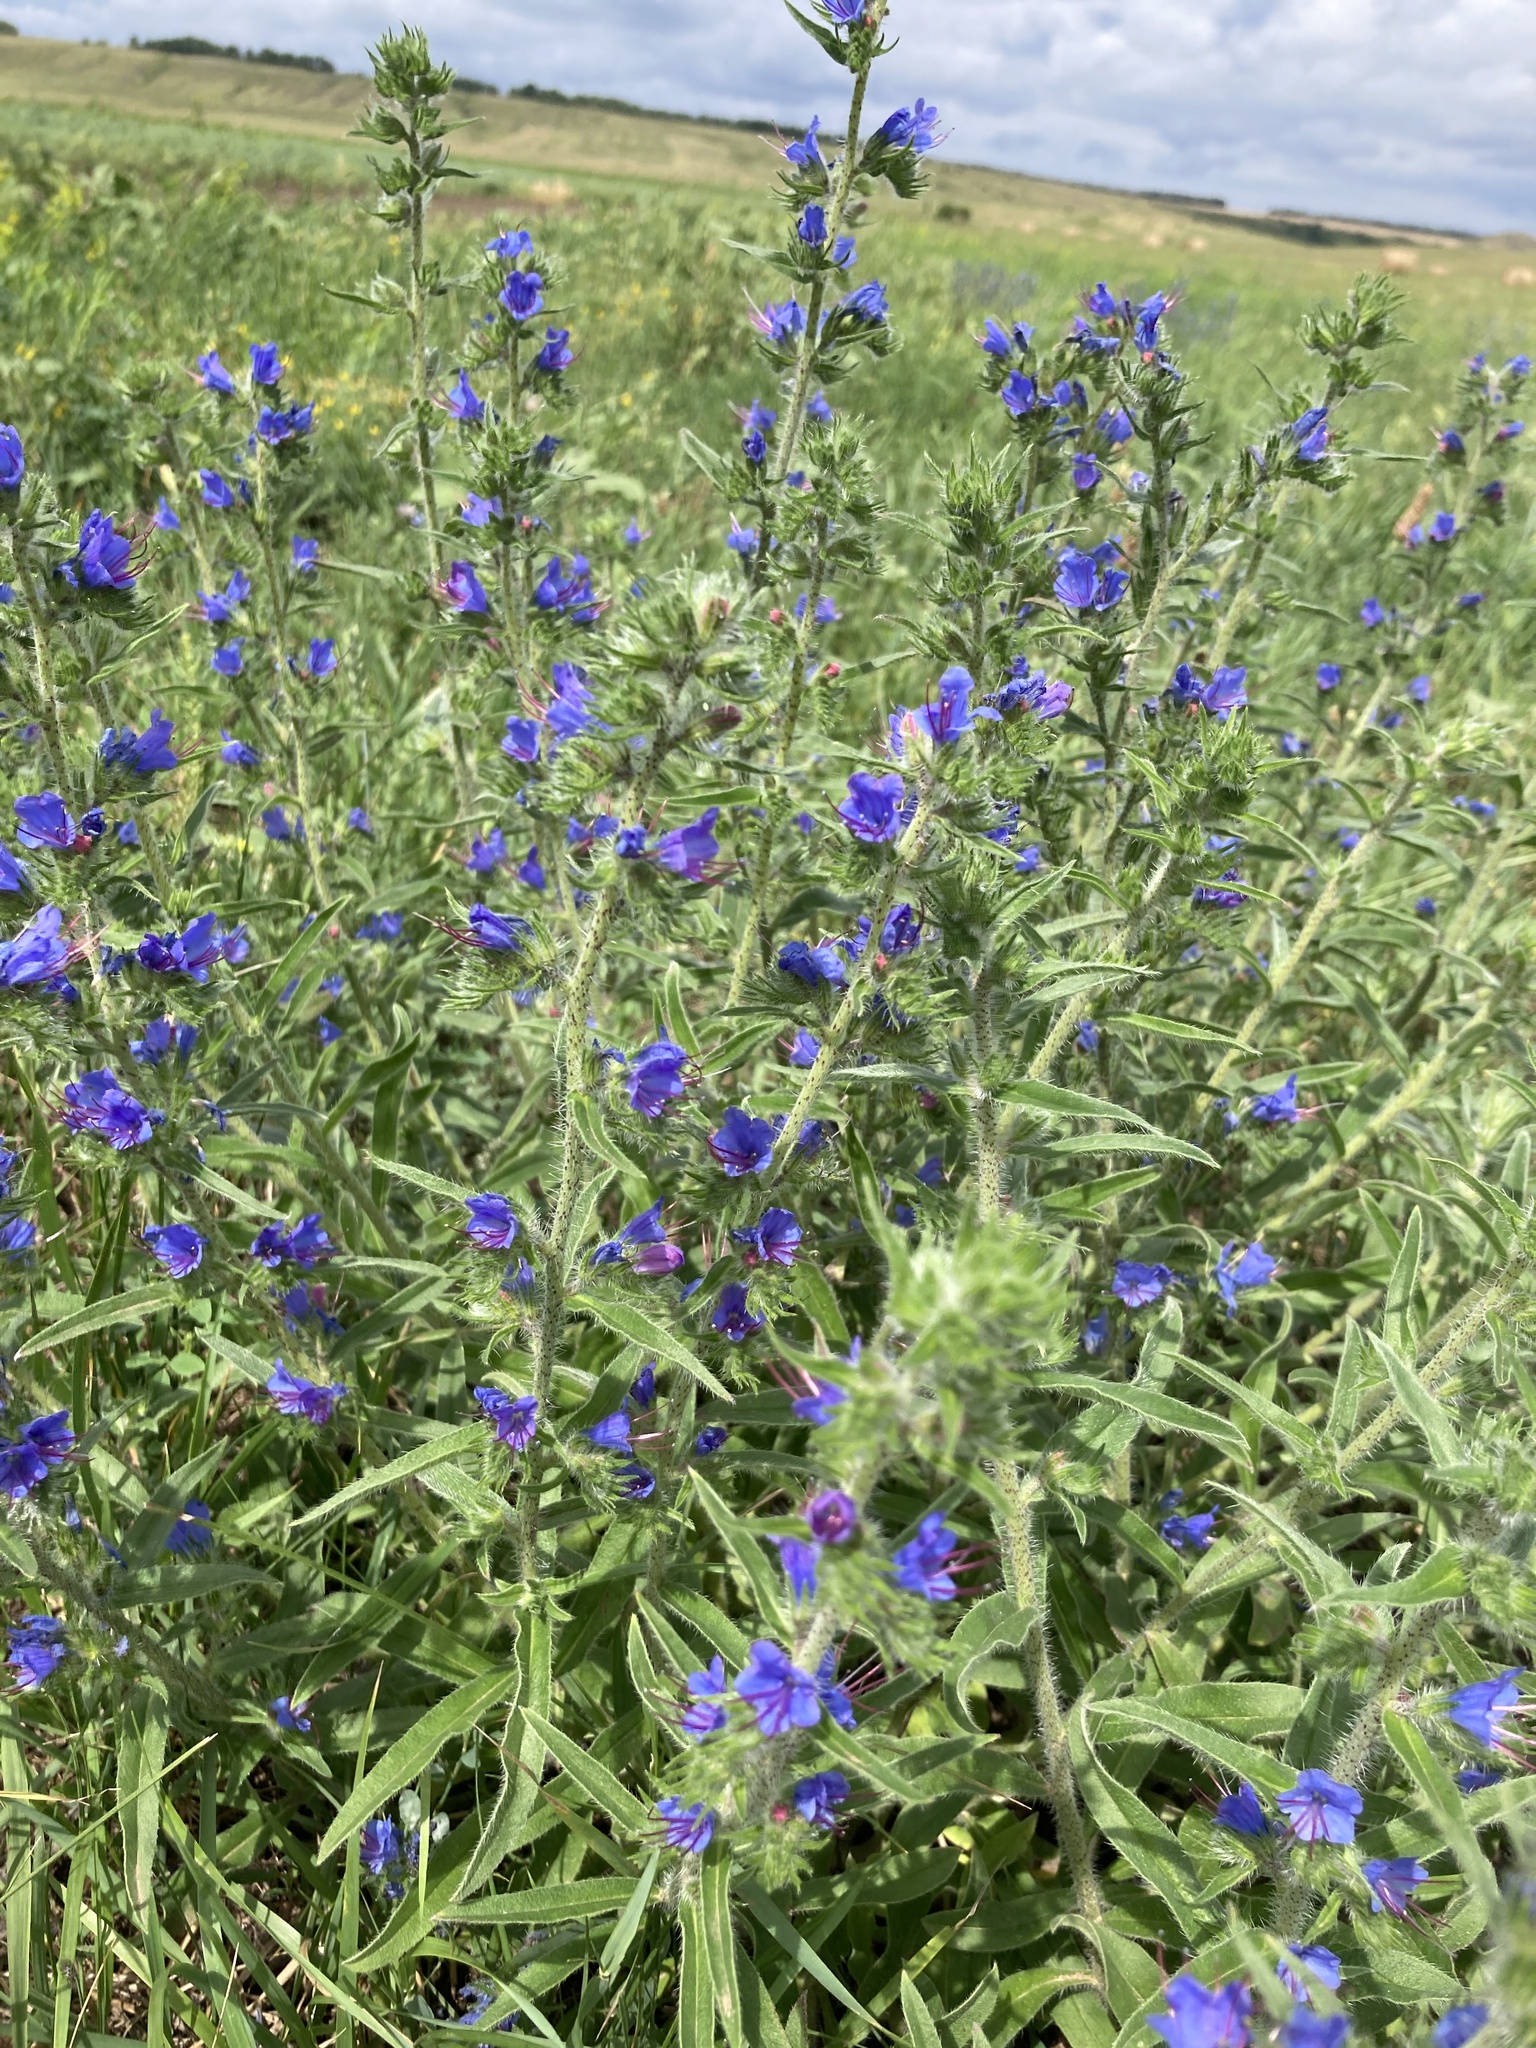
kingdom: Plantae
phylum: Tracheophyta
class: Magnoliopsida
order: Boraginales
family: Boraginaceae
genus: Echium
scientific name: Echium vulgare
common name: Common viper's bugloss
